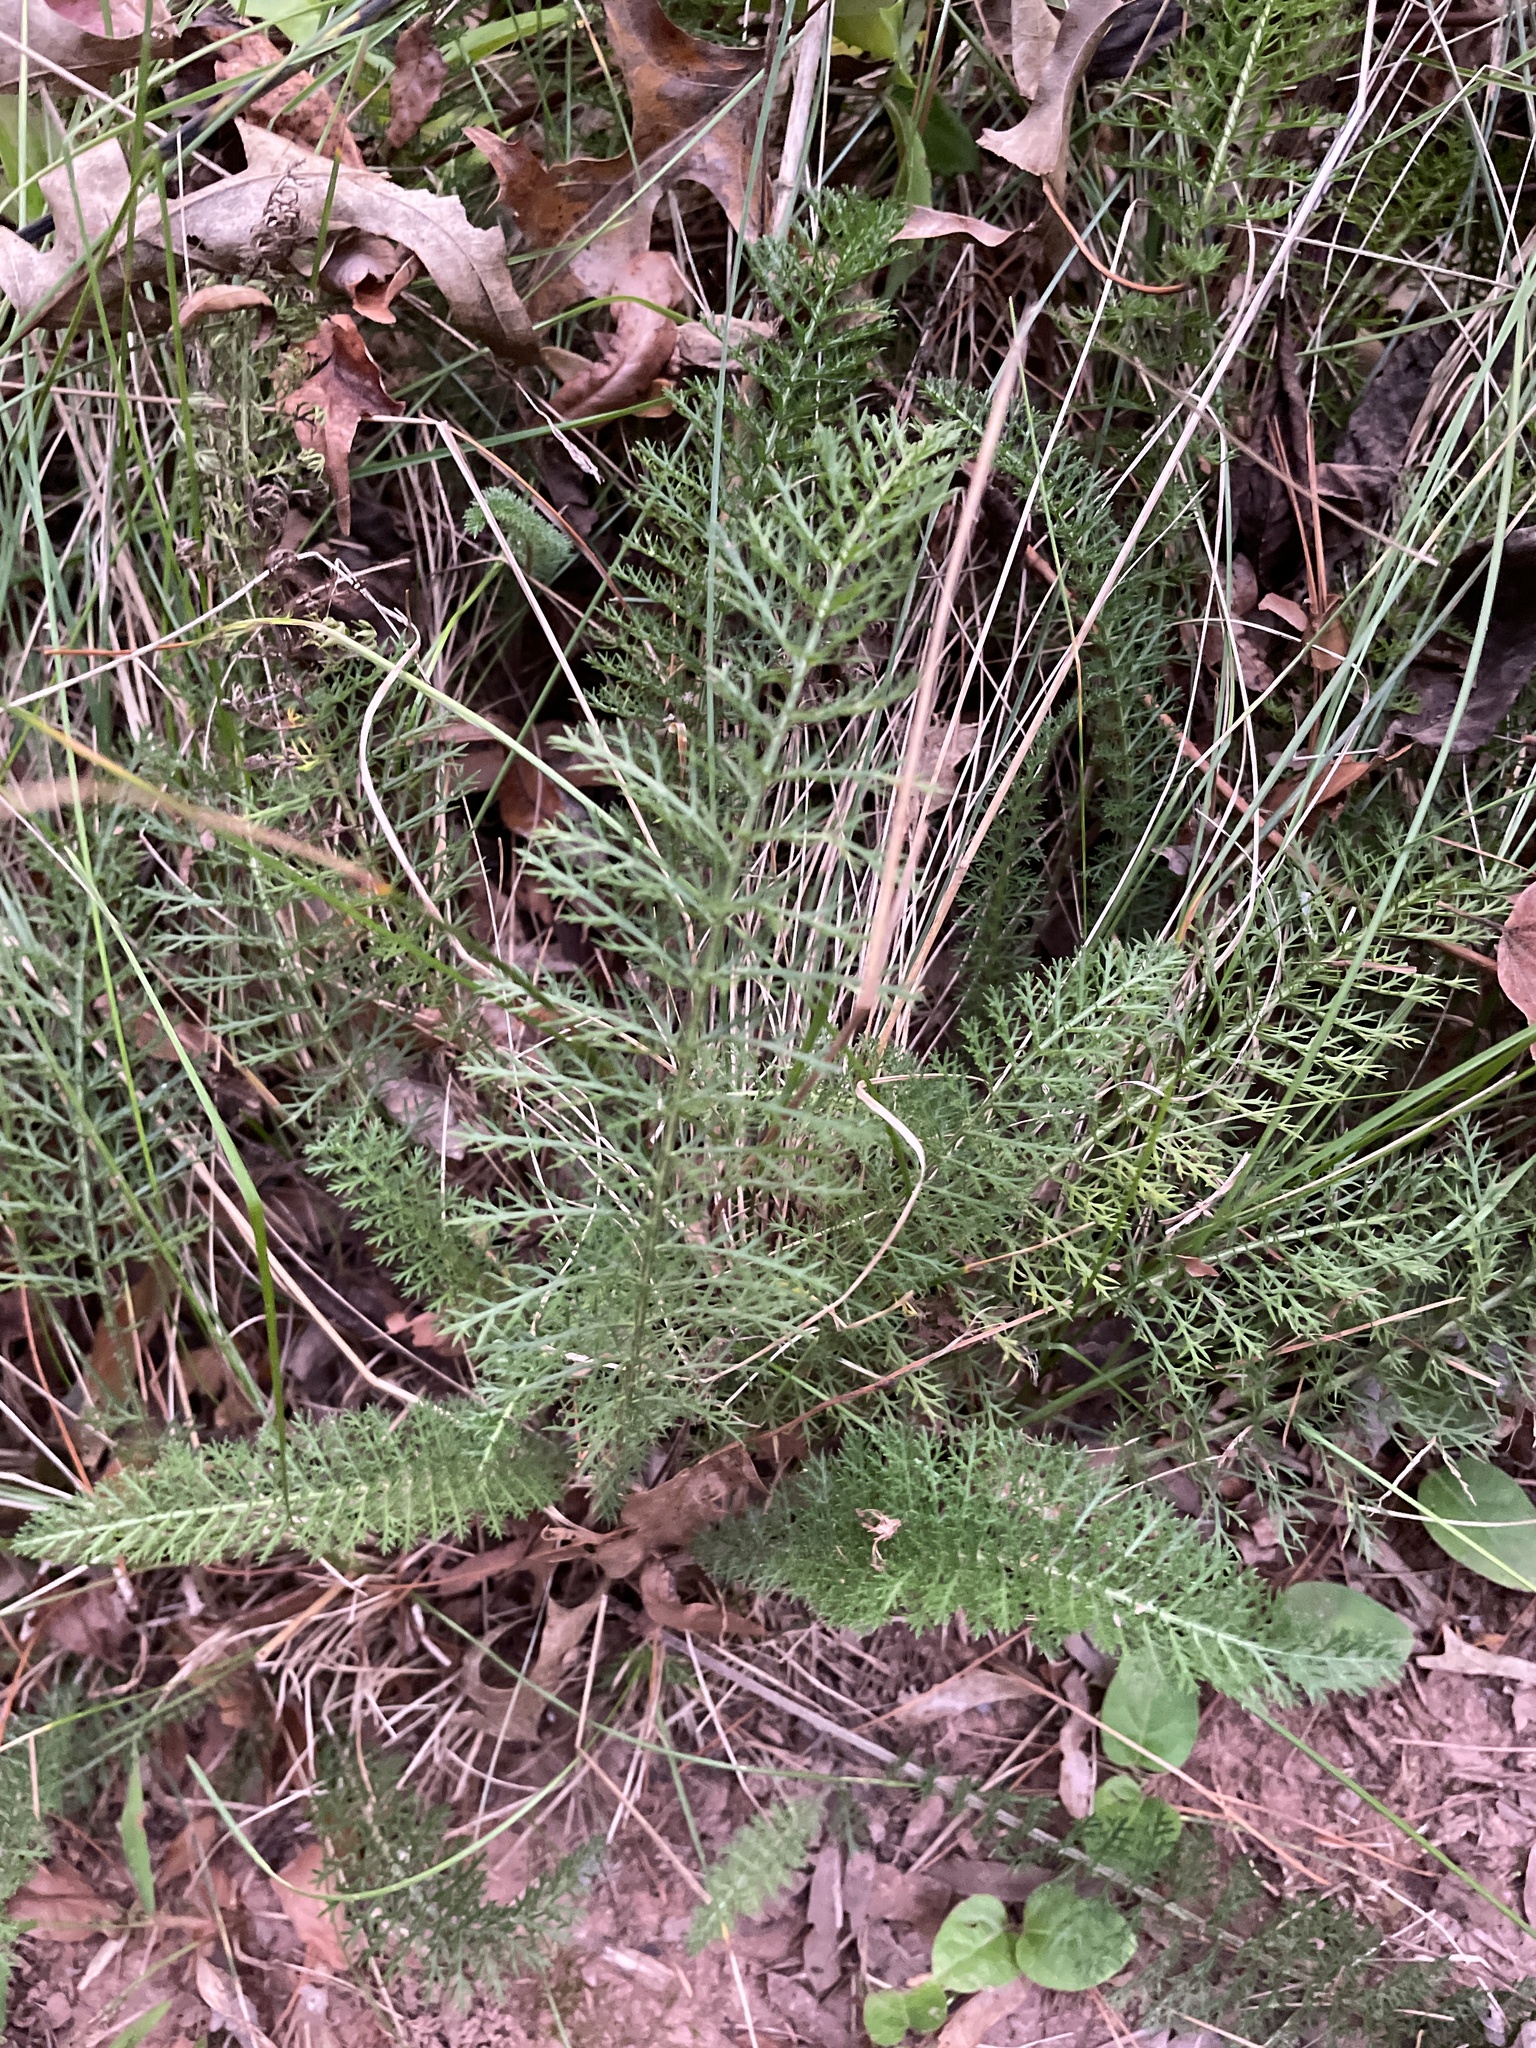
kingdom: Plantae
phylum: Tracheophyta
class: Magnoliopsida
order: Asterales
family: Asteraceae
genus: Achillea
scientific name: Achillea millefolium
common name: Yarrow
